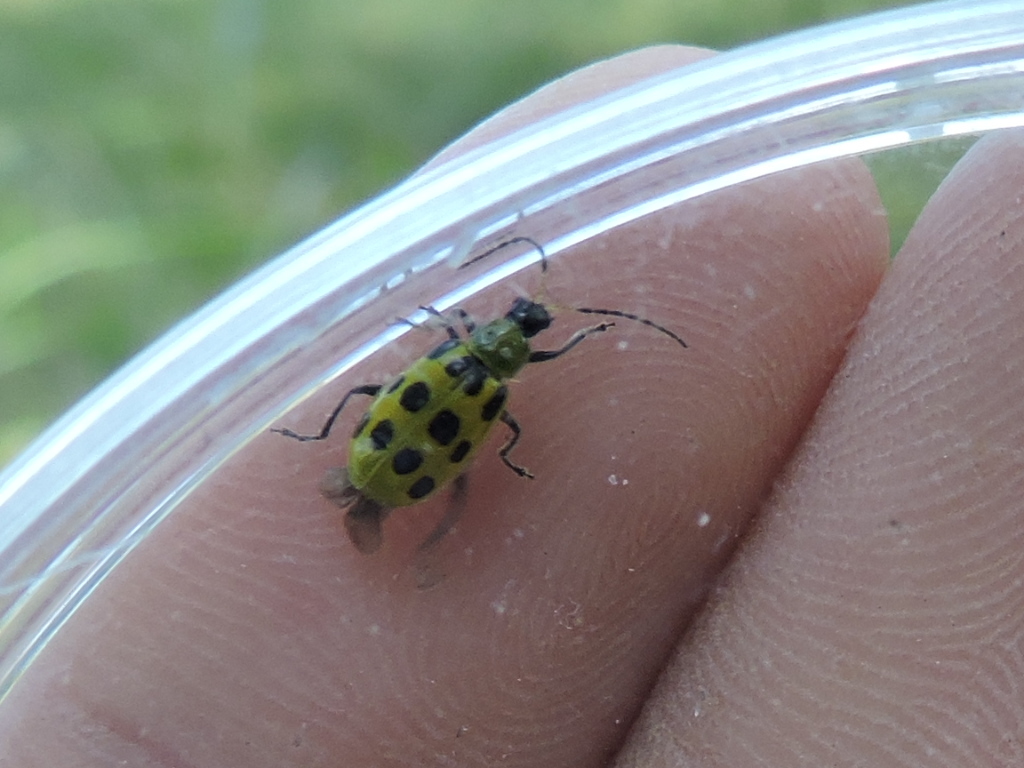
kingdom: Animalia
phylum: Arthropoda
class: Insecta
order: Coleoptera
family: Chrysomelidae
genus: Diabrotica
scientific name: Diabrotica undecimpunctata
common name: Spotted cucumber beetle
